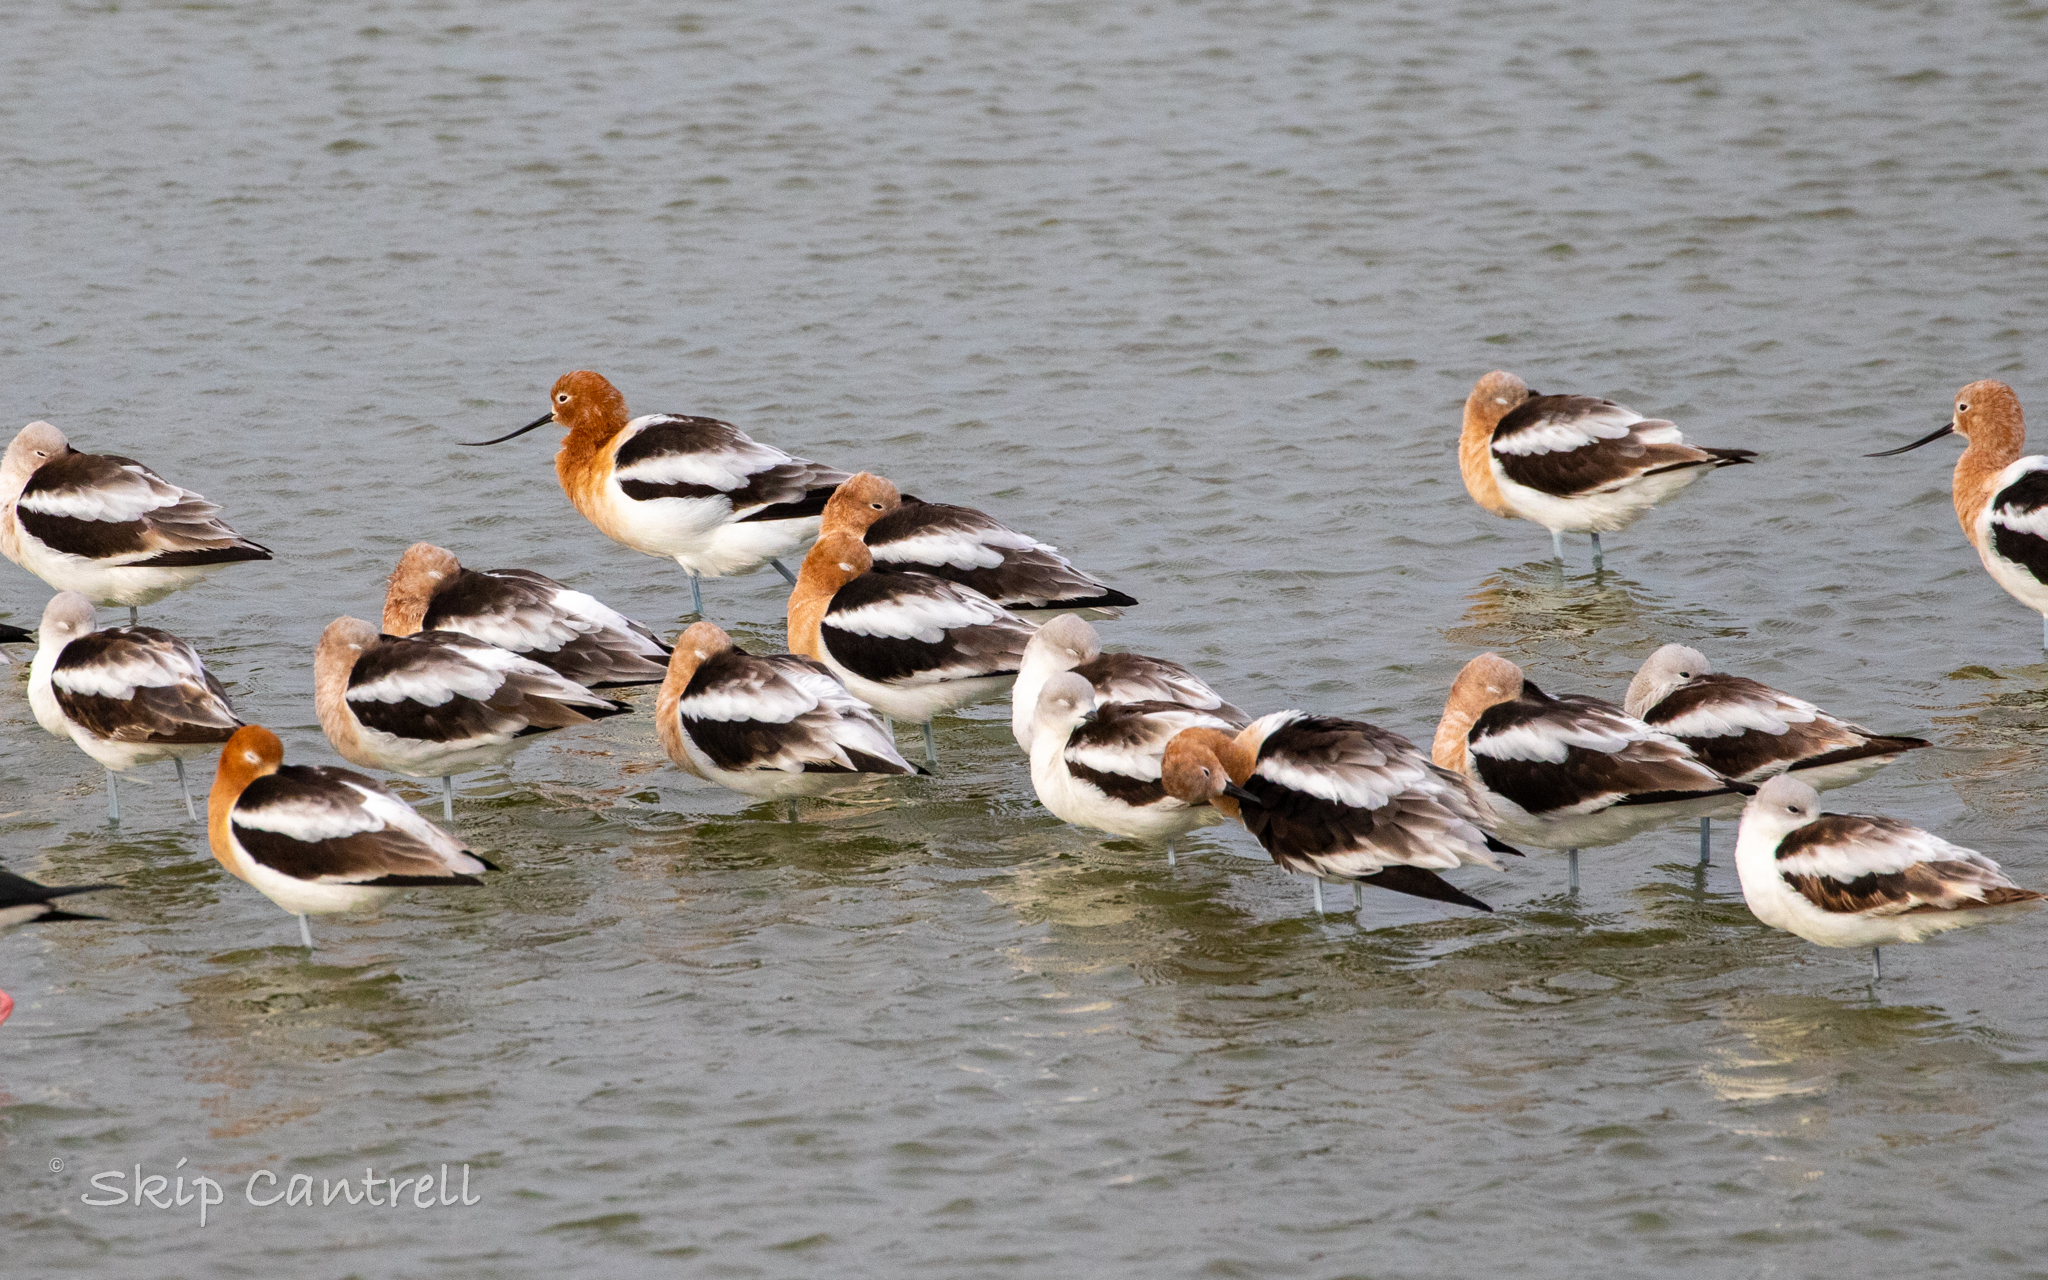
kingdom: Animalia
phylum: Chordata
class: Aves
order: Charadriiformes
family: Recurvirostridae
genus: Recurvirostra
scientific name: Recurvirostra americana
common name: American avocet
